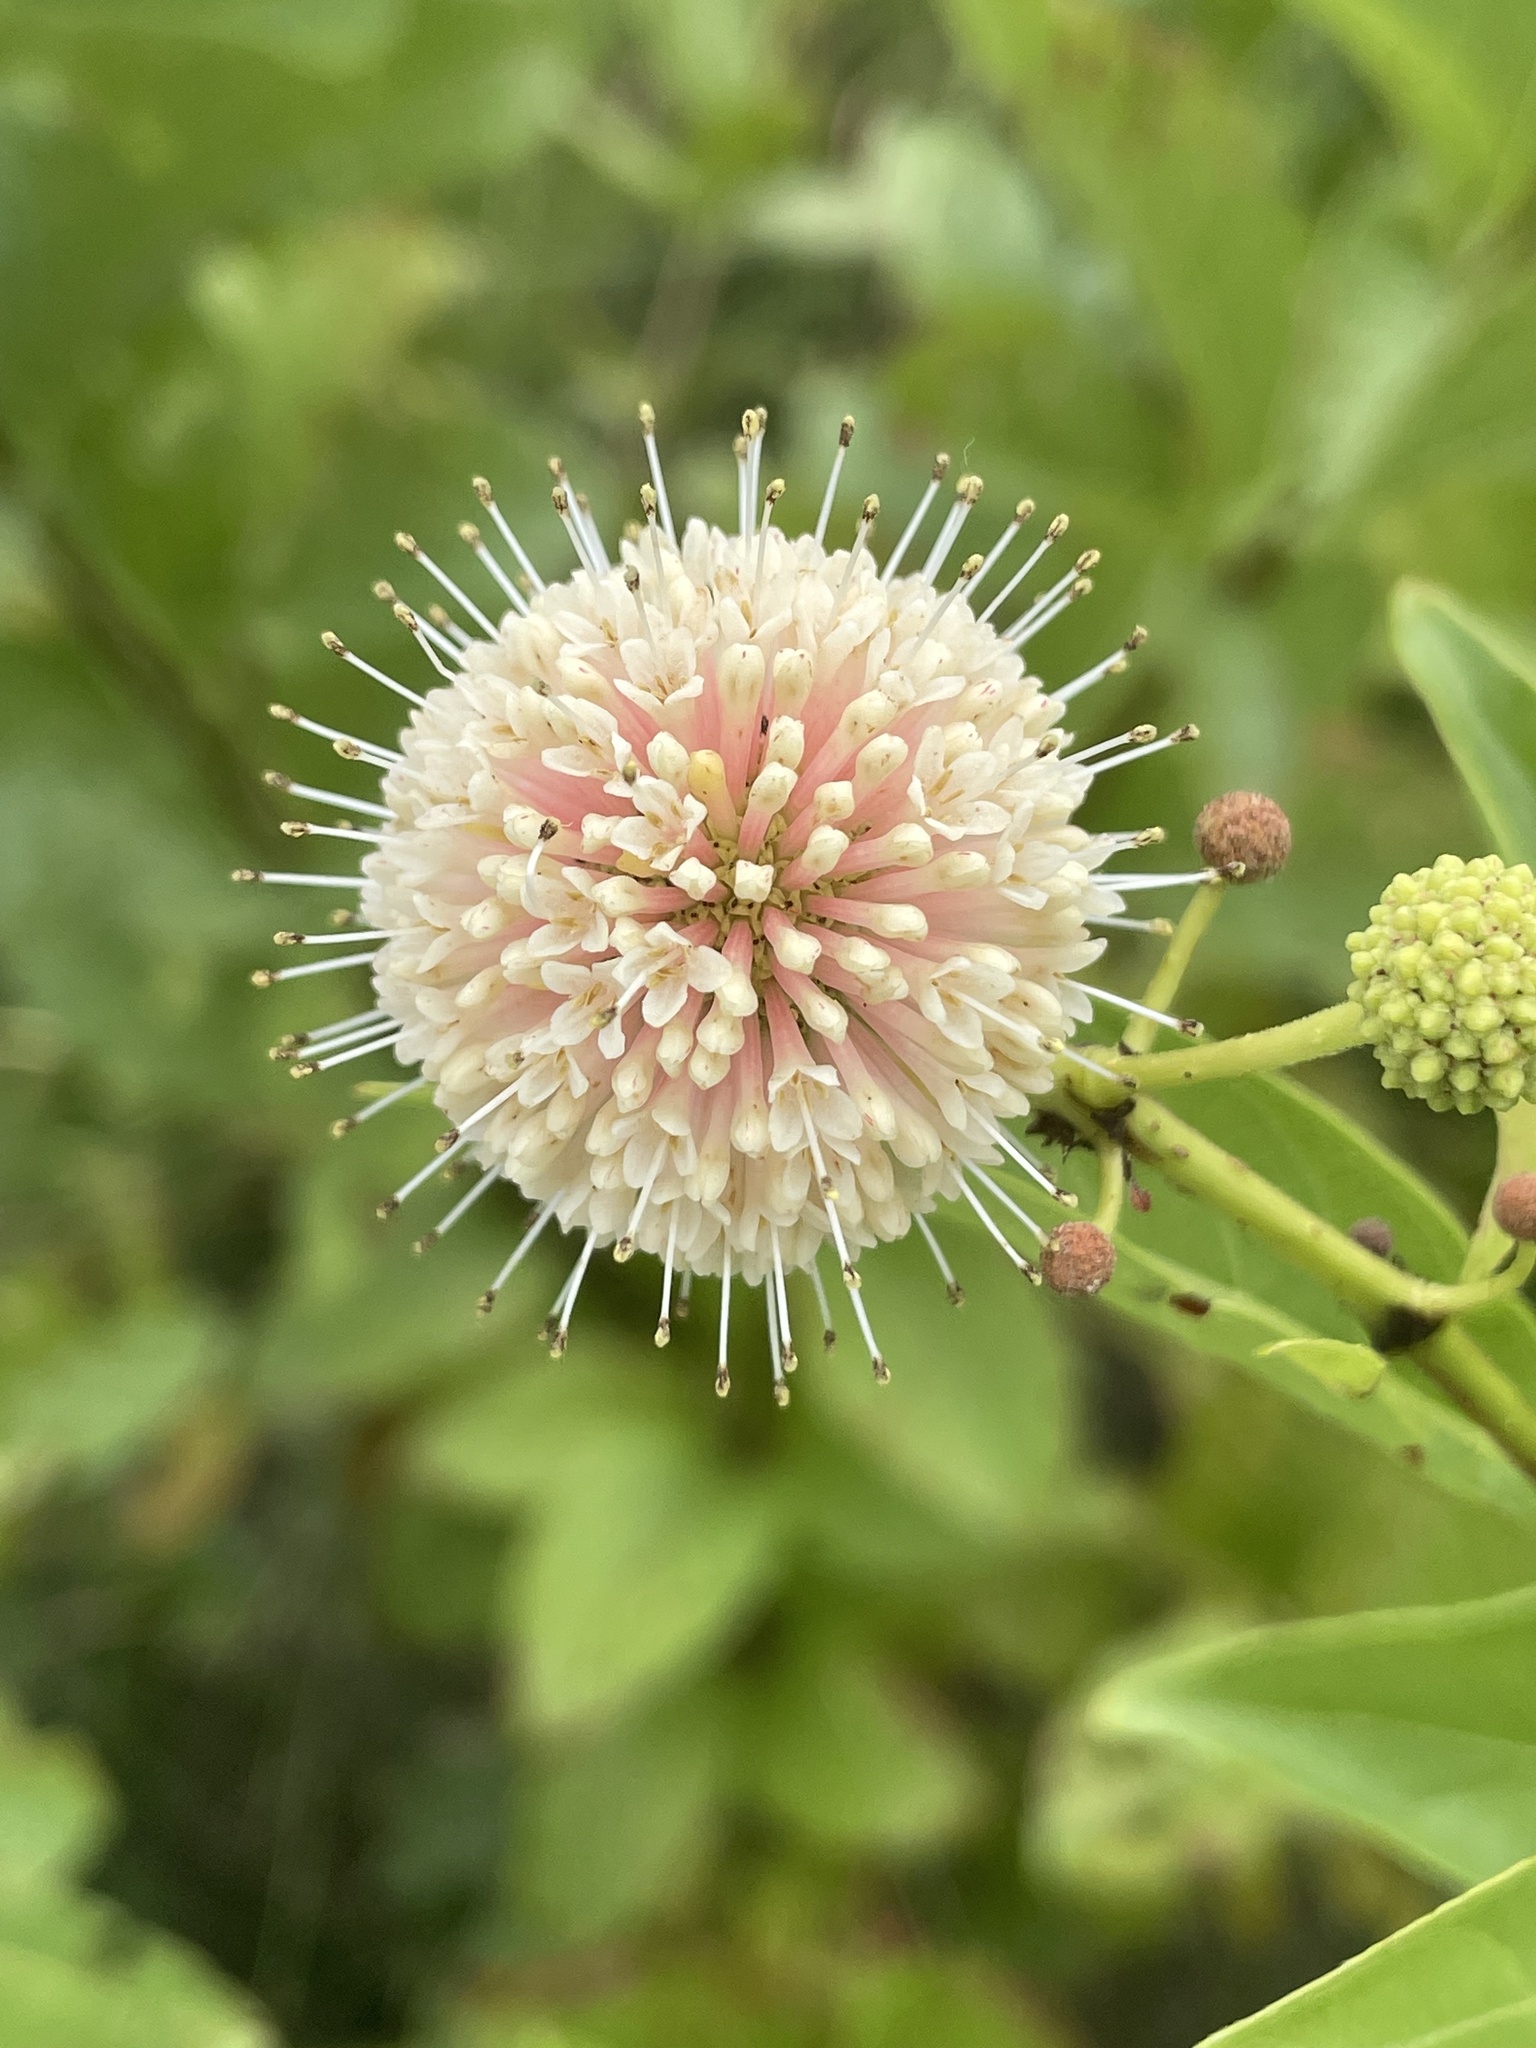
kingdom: Plantae
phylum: Tracheophyta
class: Magnoliopsida
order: Gentianales
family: Rubiaceae
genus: Cephalanthus
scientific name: Cephalanthus occidentalis
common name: Button-willow
